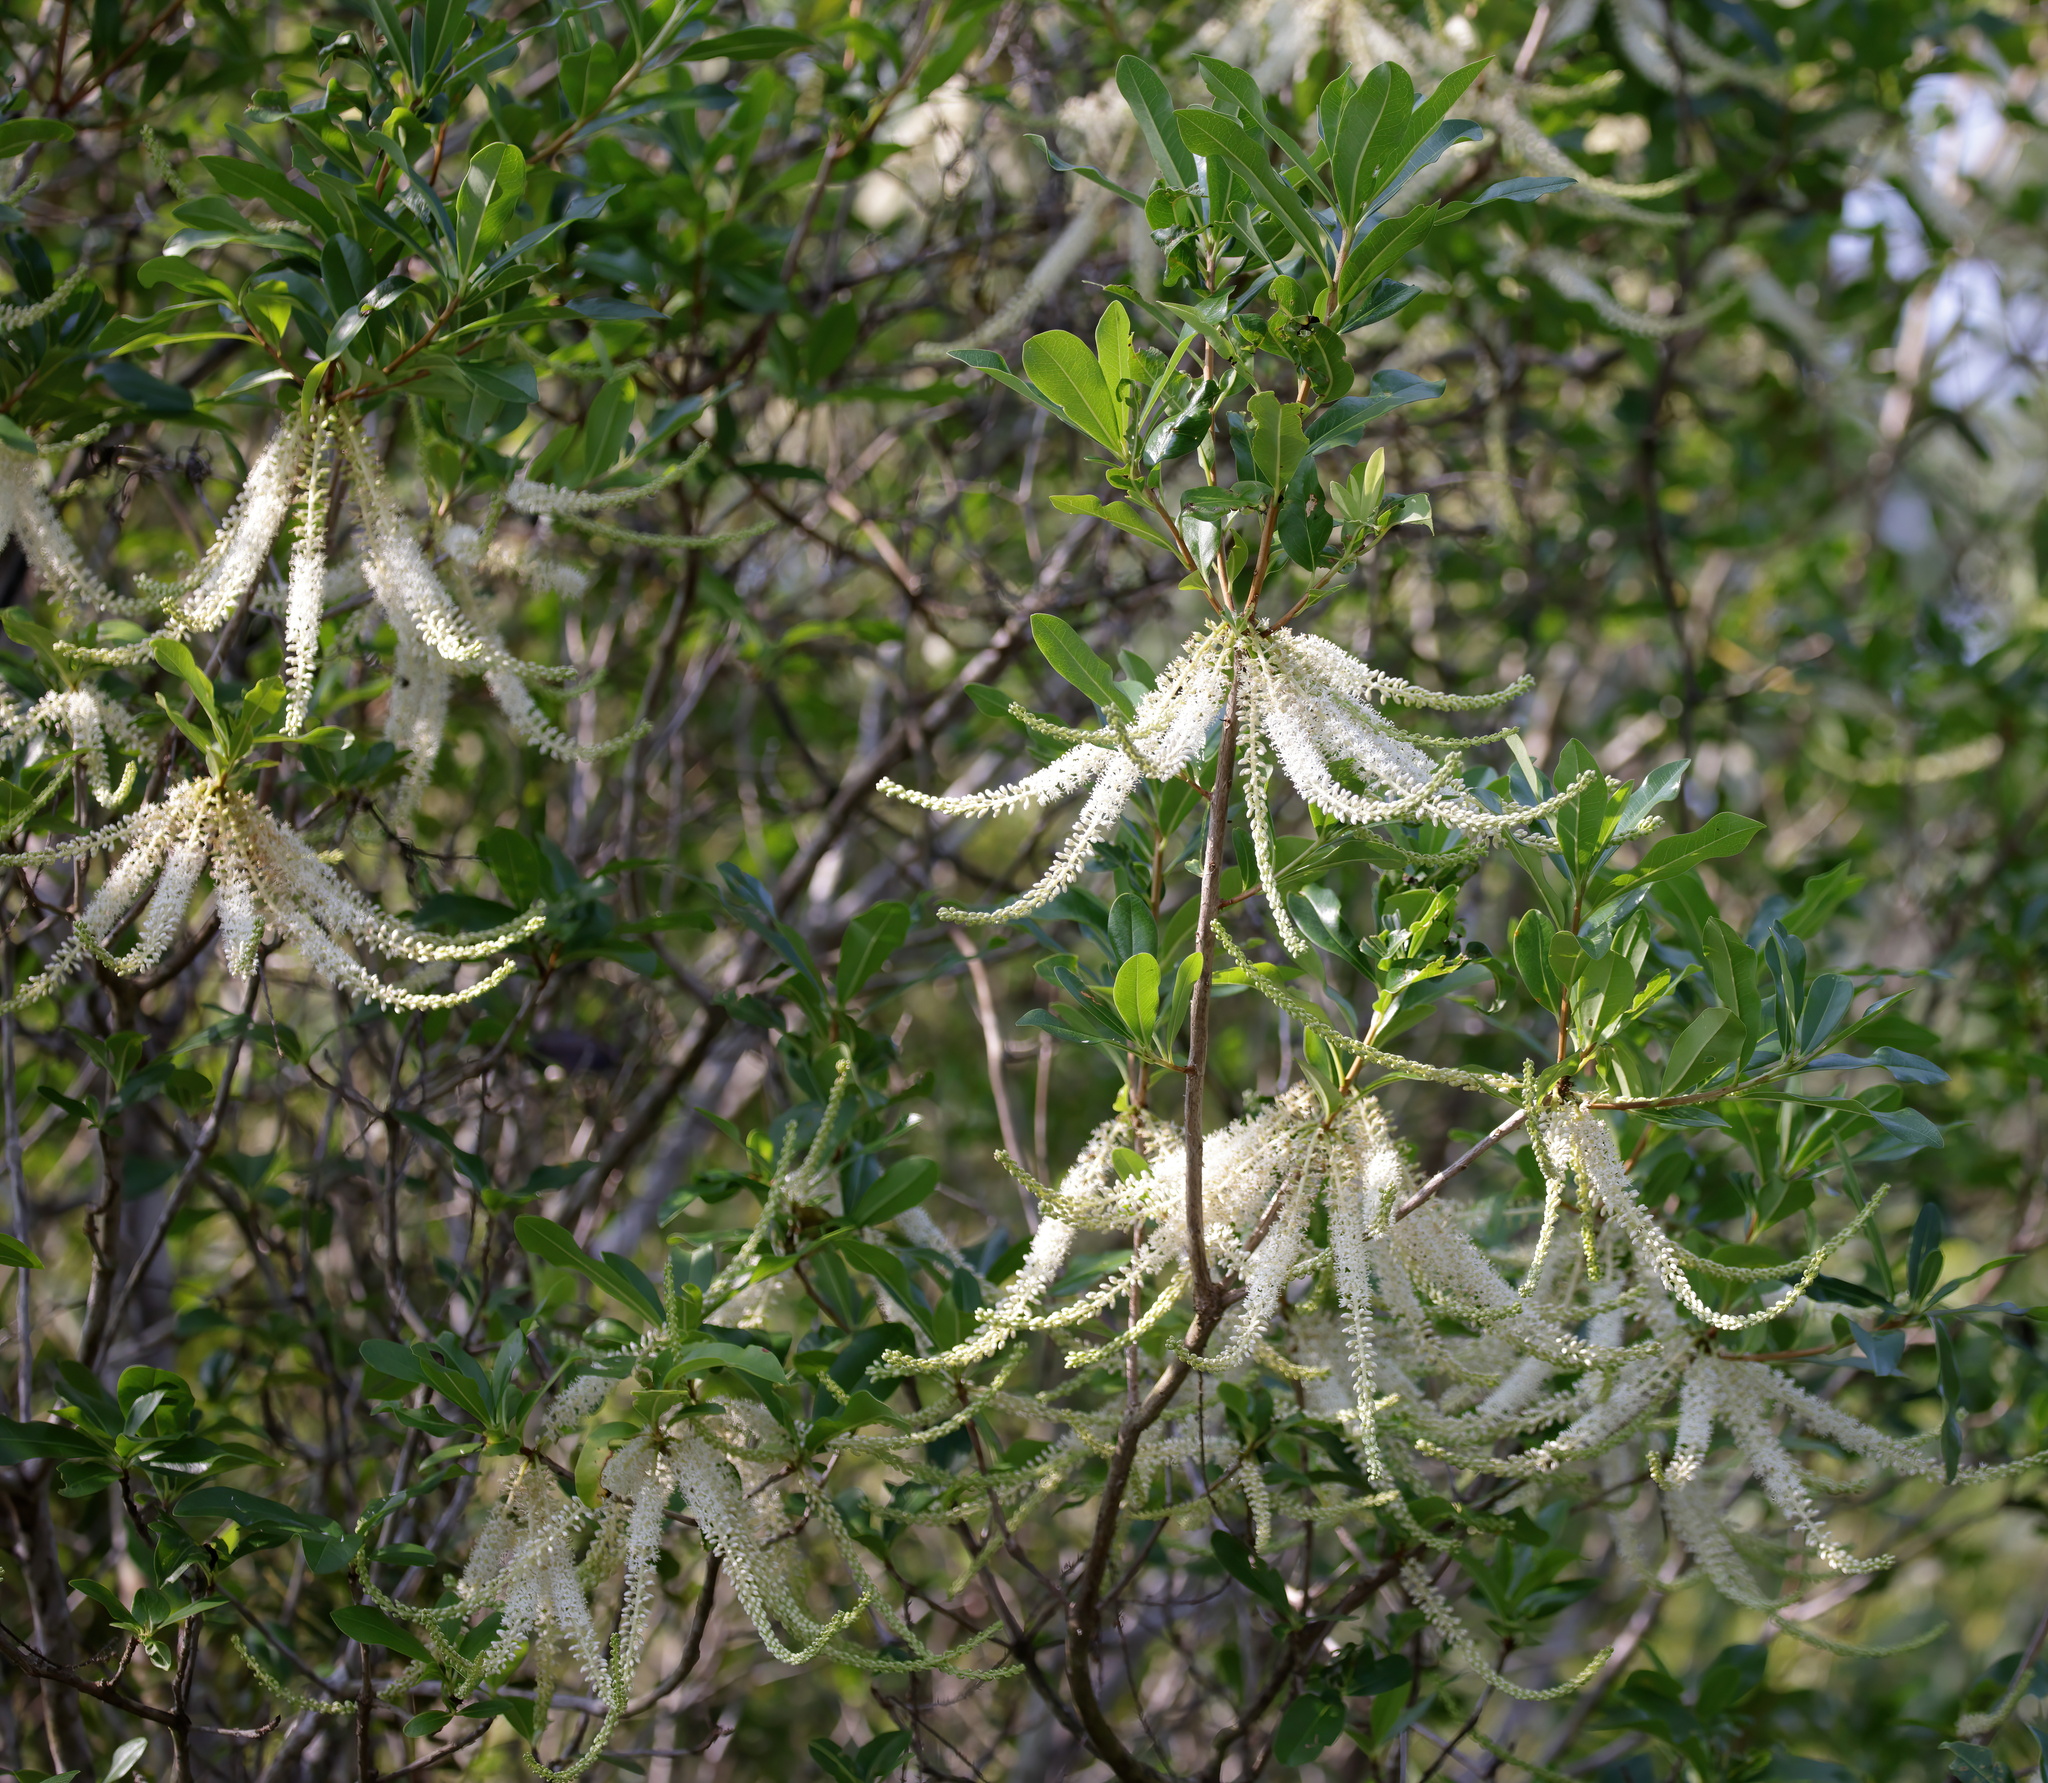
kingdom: Plantae
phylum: Tracheophyta
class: Magnoliopsida
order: Ericales
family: Cyrillaceae
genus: Cyrilla
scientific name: Cyrilla racemiflora
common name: Black titi
